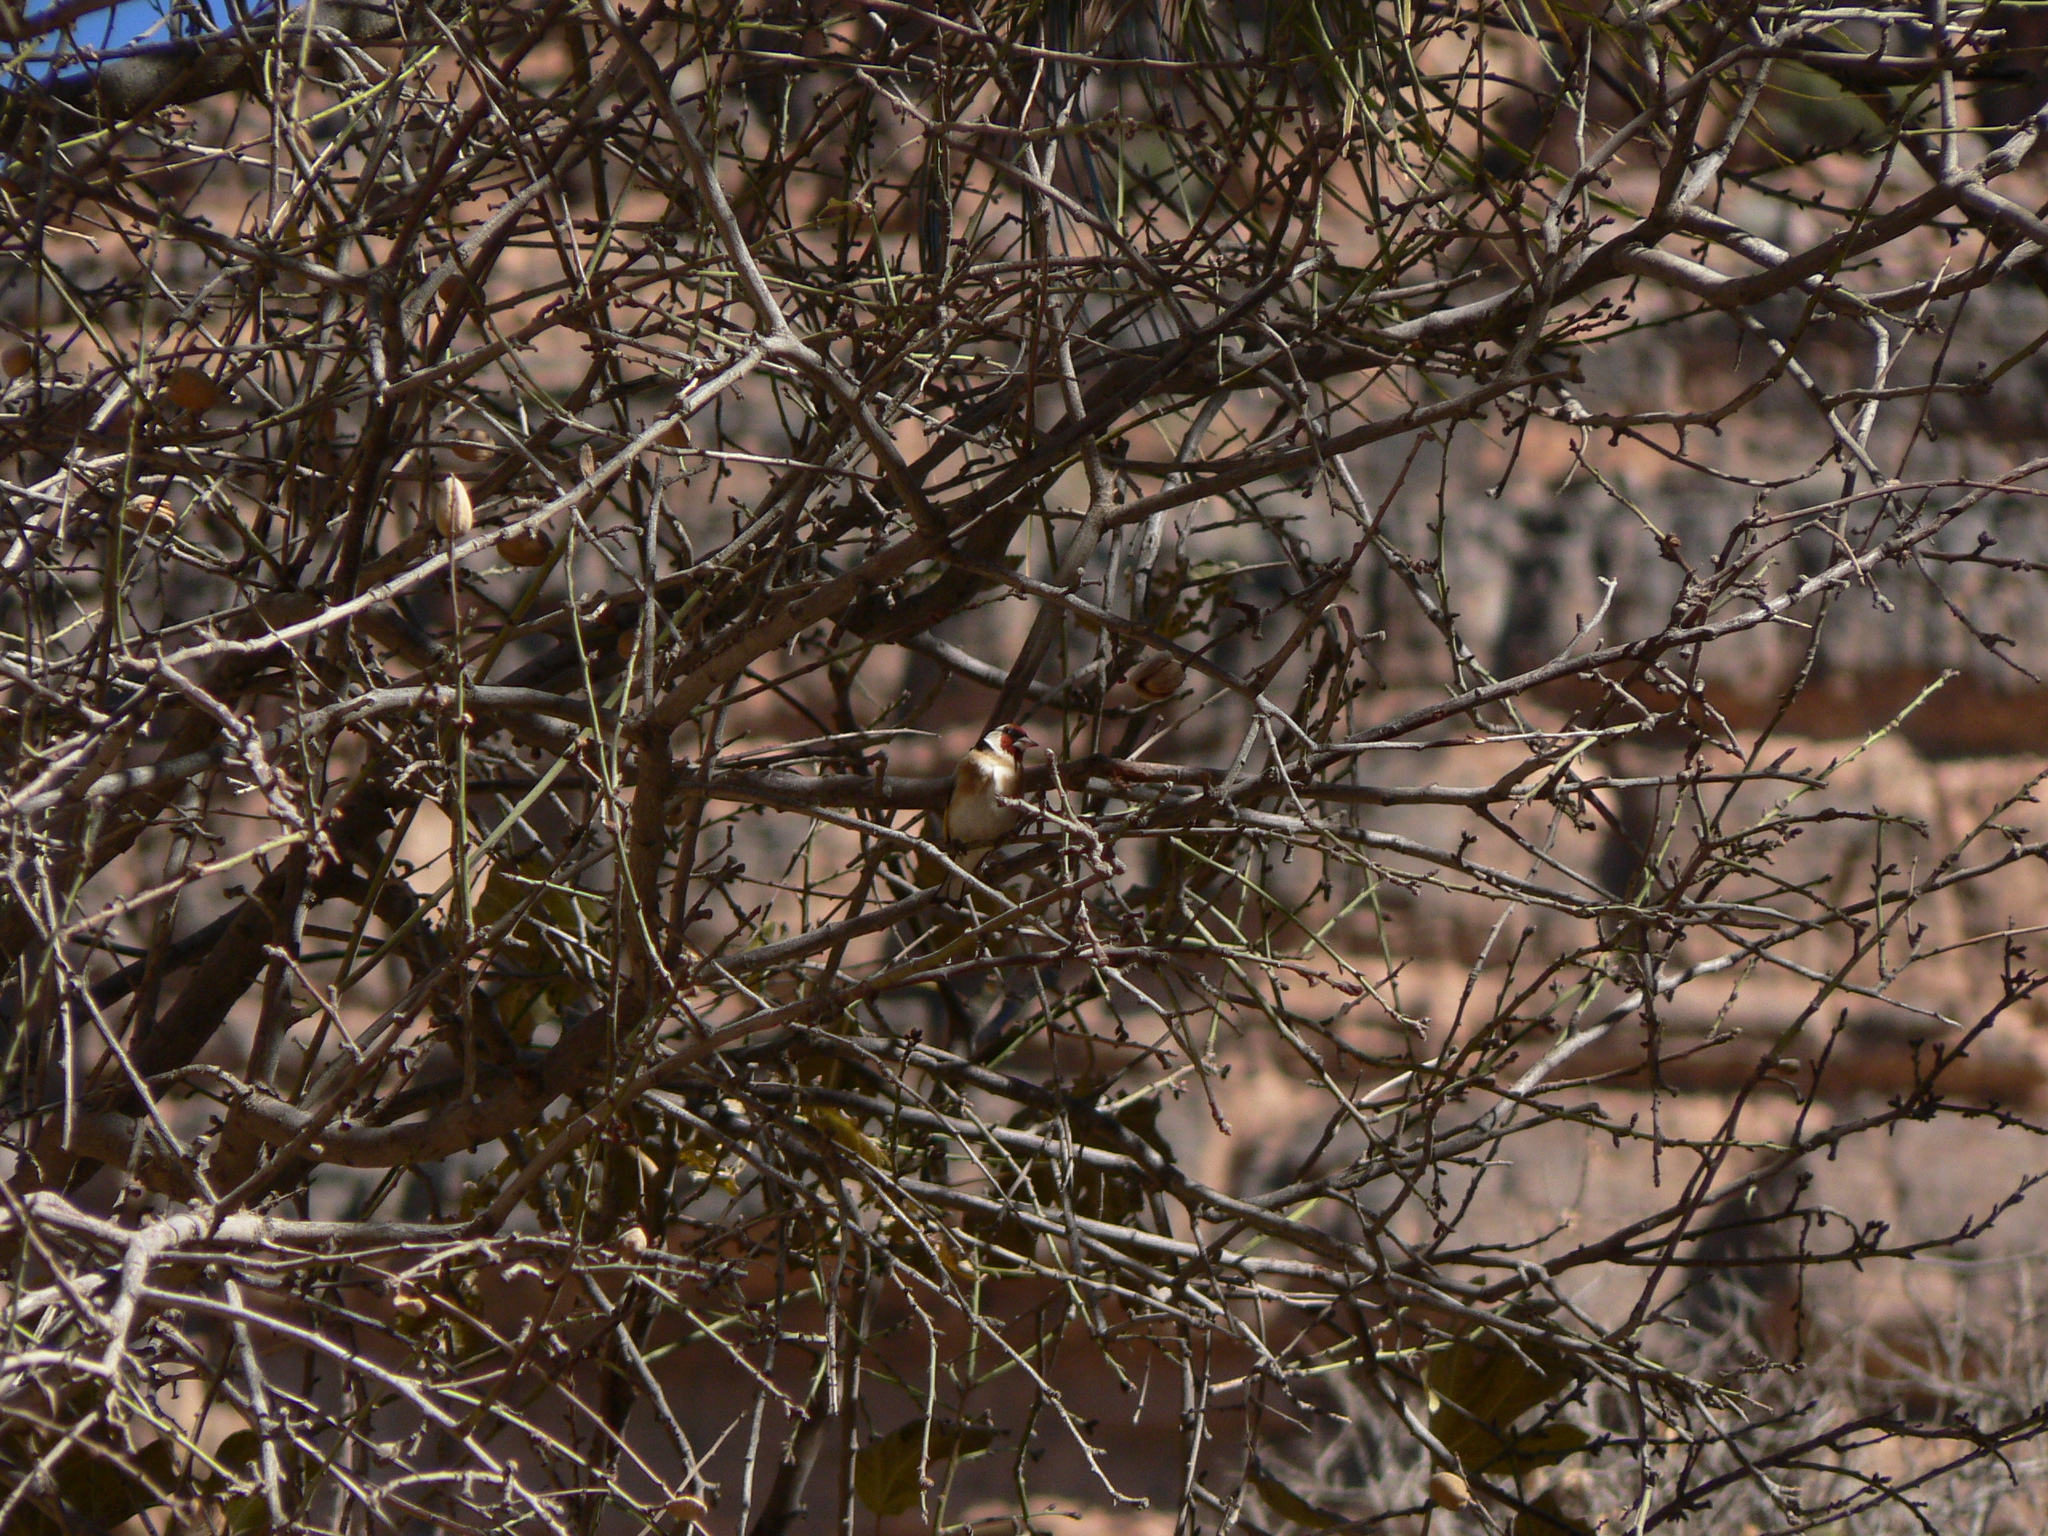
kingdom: Animalia
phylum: Chordata
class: Aves
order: Passeriformes
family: Fringillidae
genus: Carduelis
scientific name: Carduelis carduelis
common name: European goldfinch
